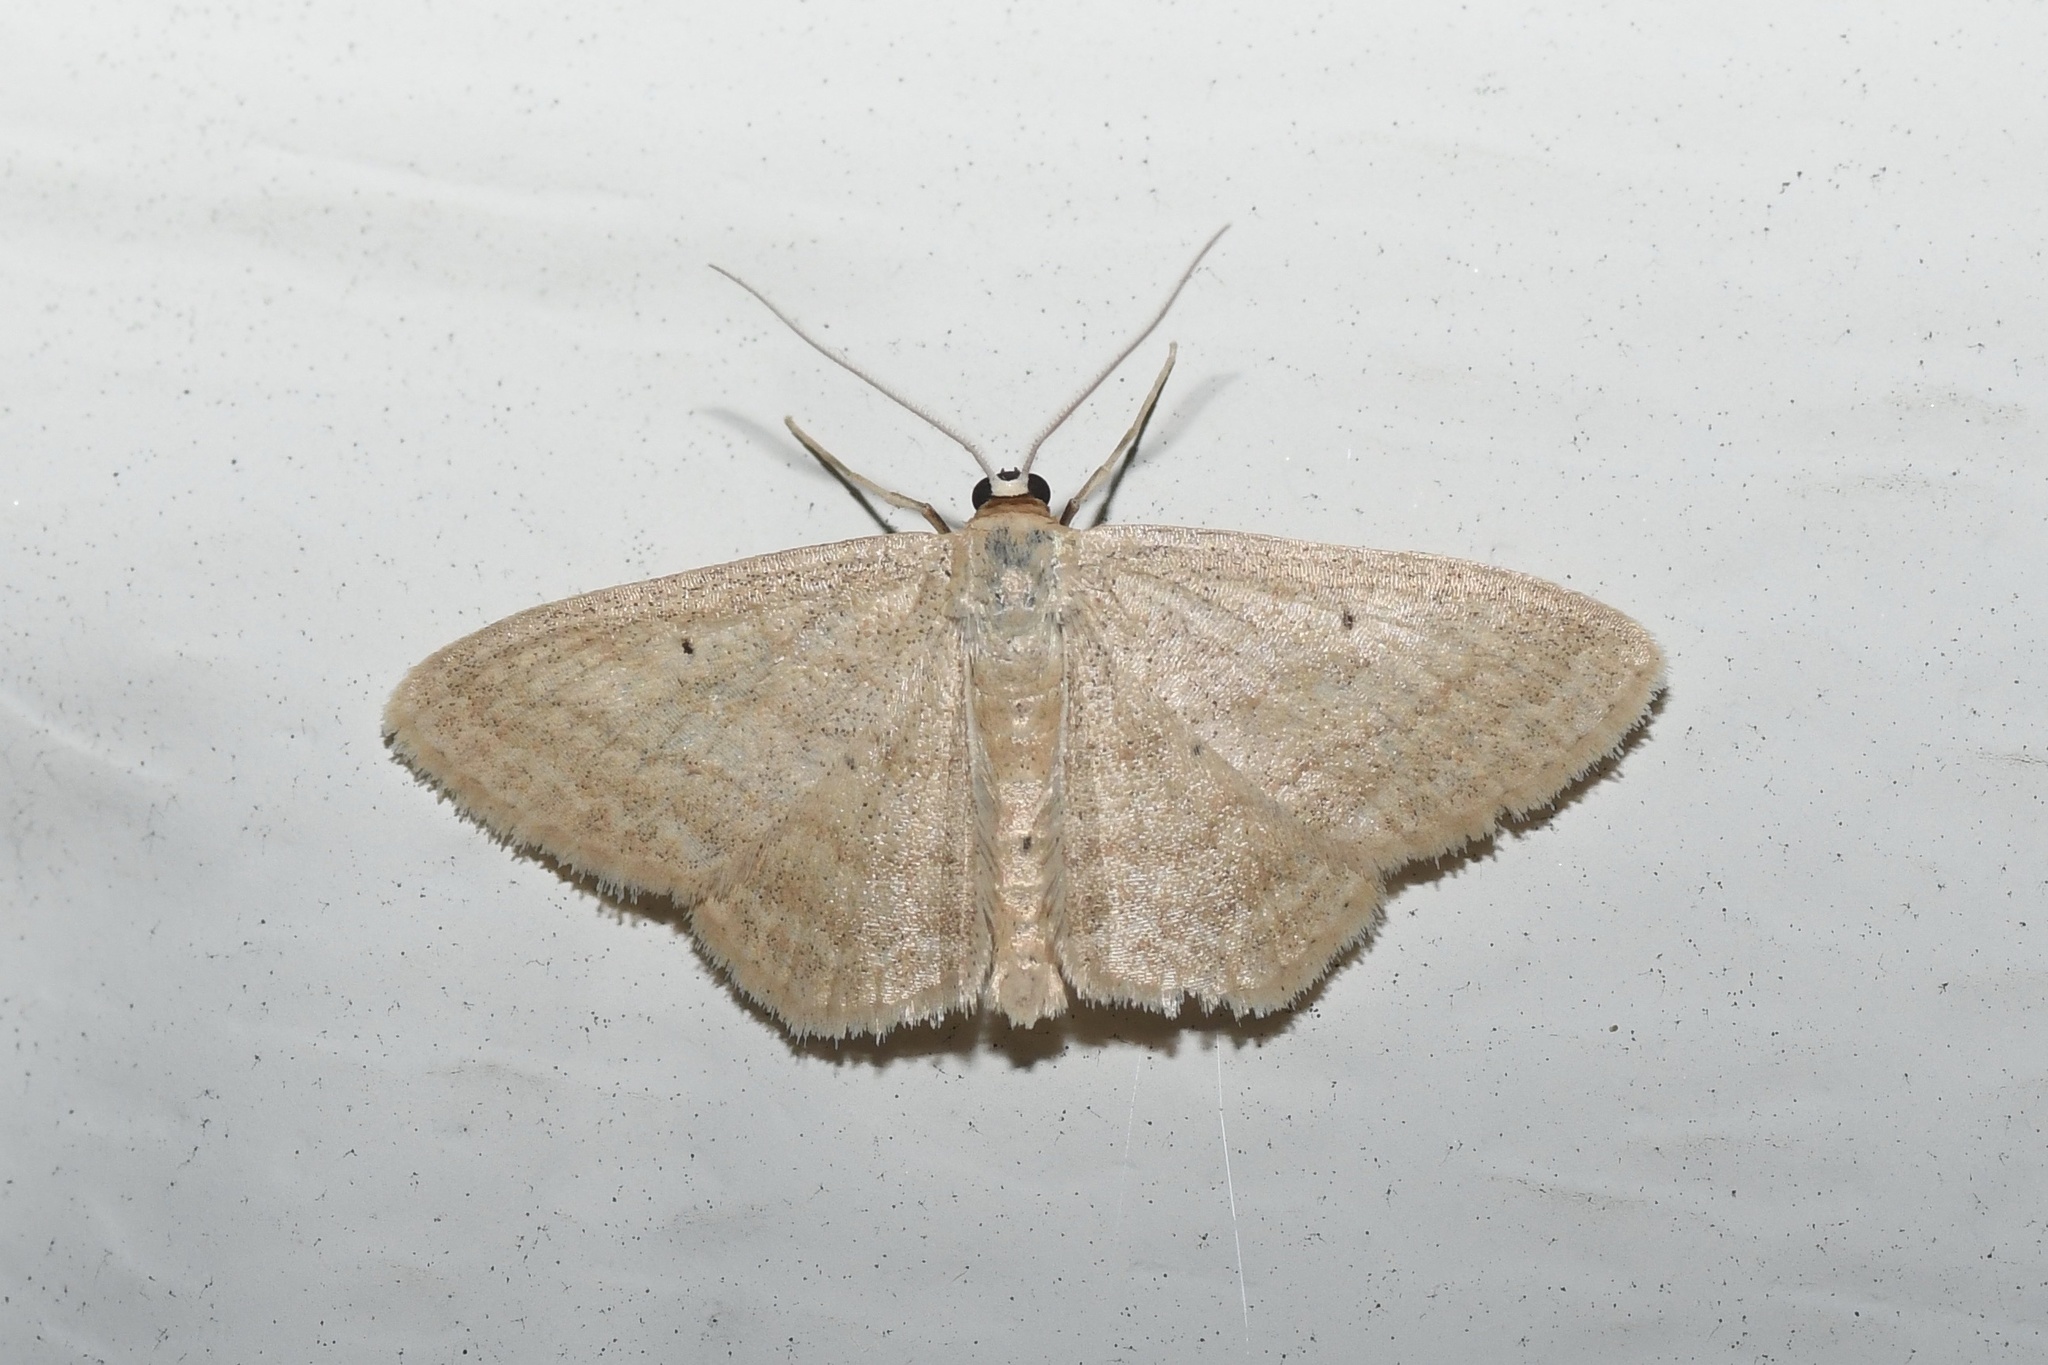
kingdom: Animalia
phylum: Arthropoda
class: Insecta
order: Lepidoptera
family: Geometridae
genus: Scopula
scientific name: Scopula inductata
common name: Soft-lined wave
